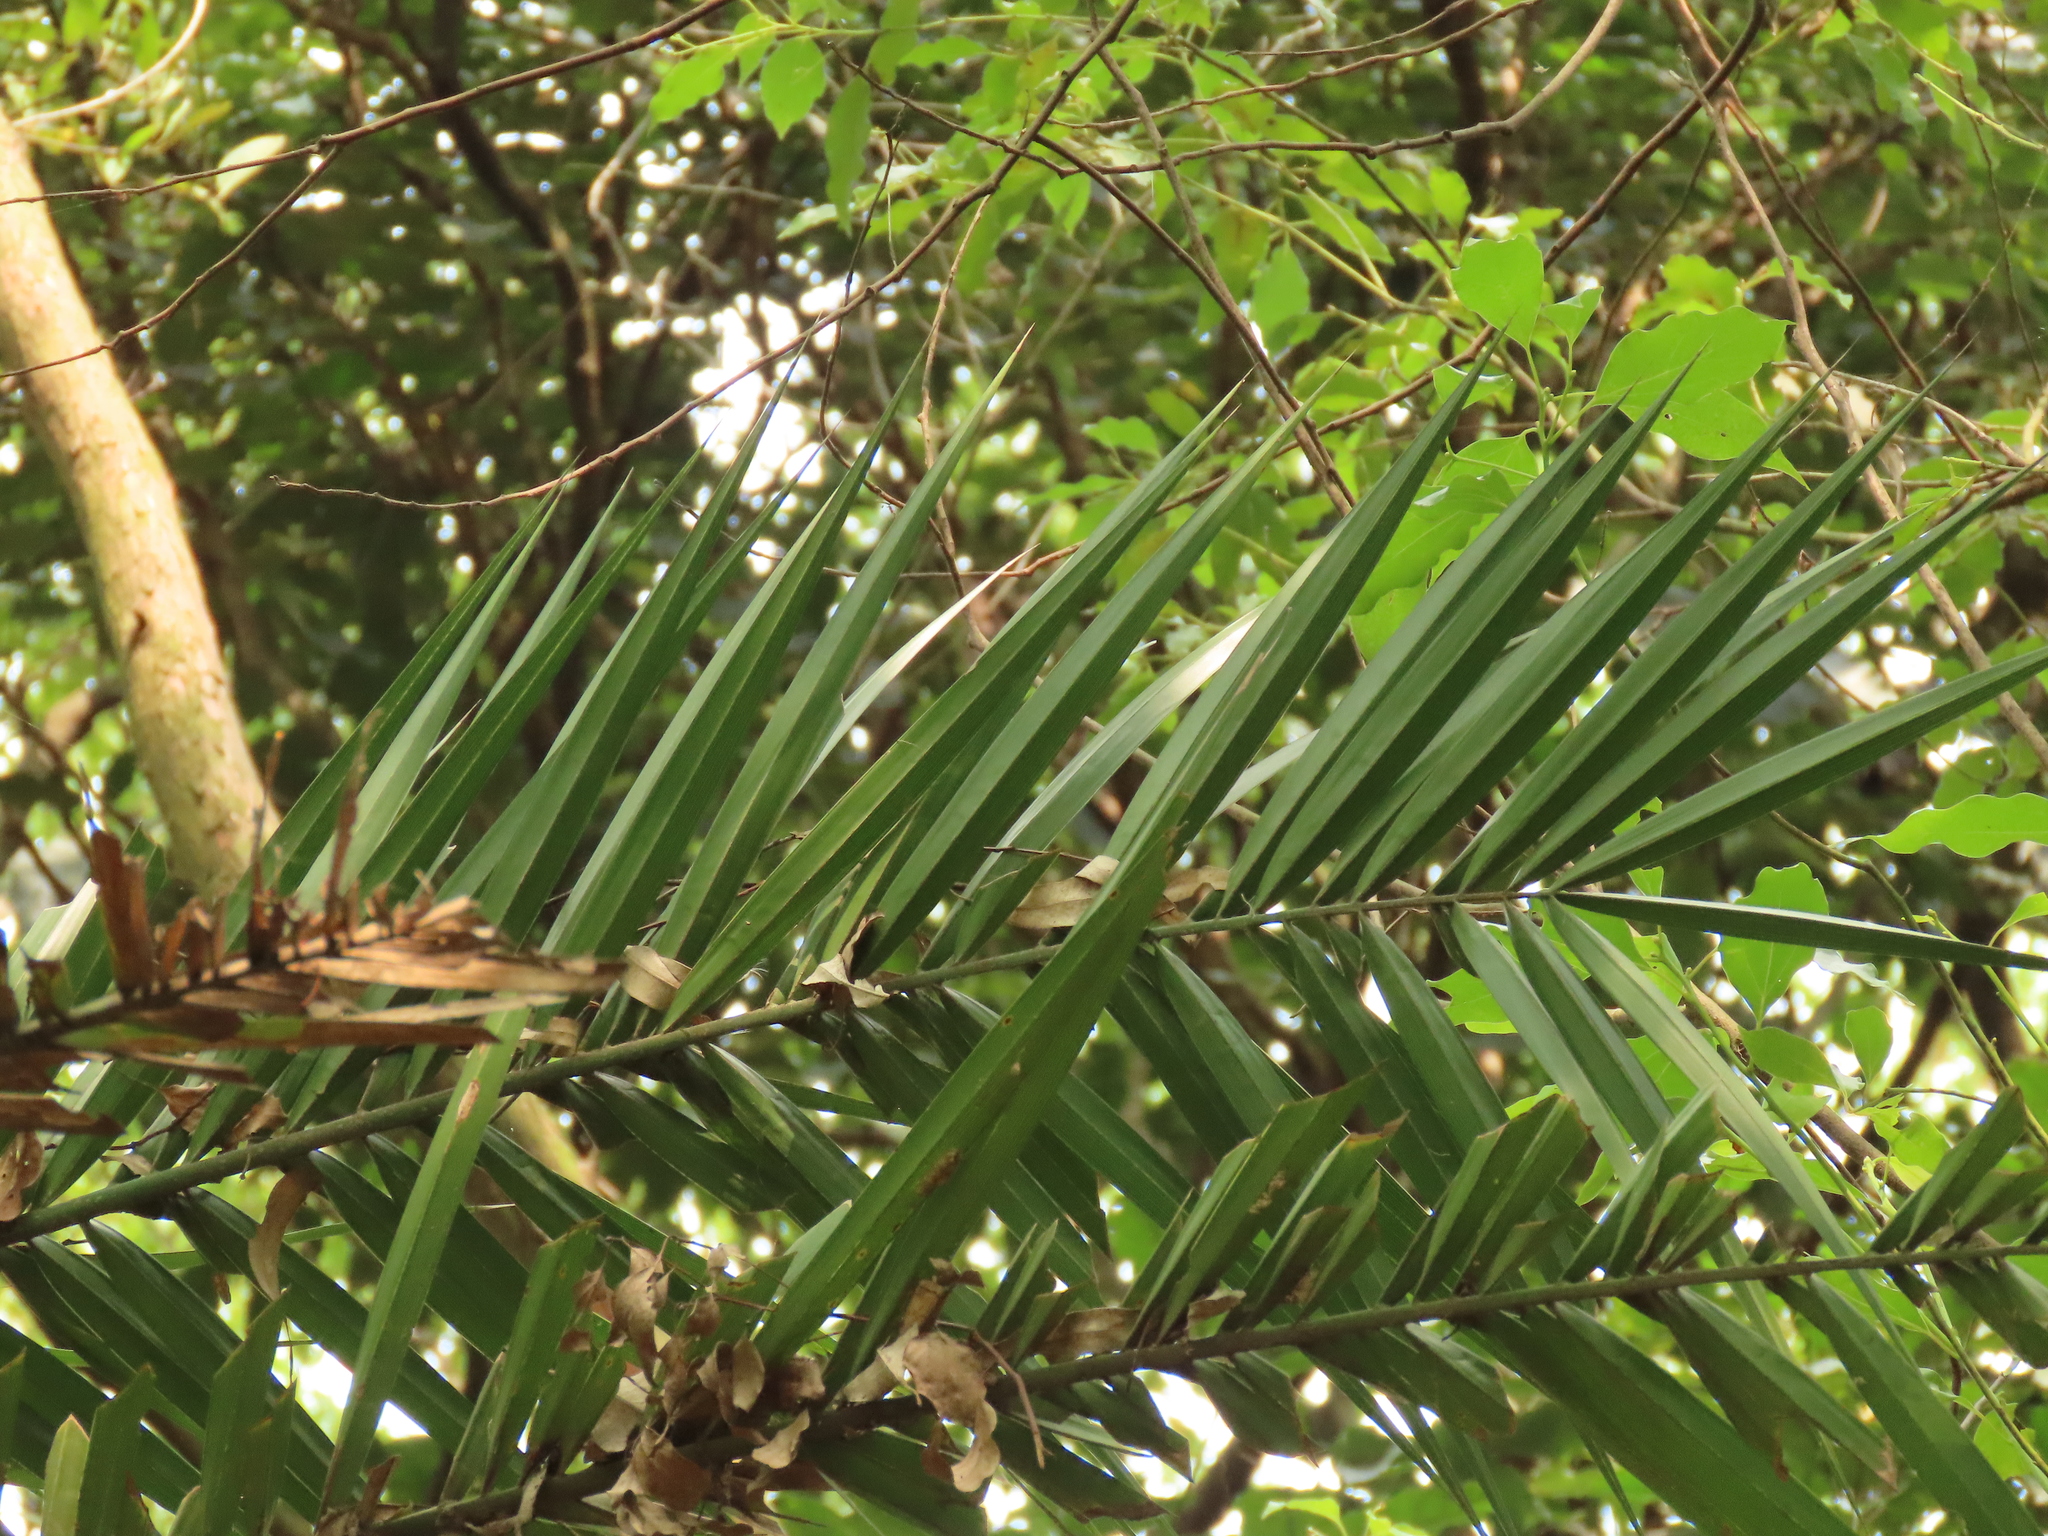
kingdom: Plantae
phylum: Tracheophyta
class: Liliopsida
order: Arecales
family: Arecaceae
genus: Phoenix
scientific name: Phoenix loureiroi
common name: Loureiro's palm
